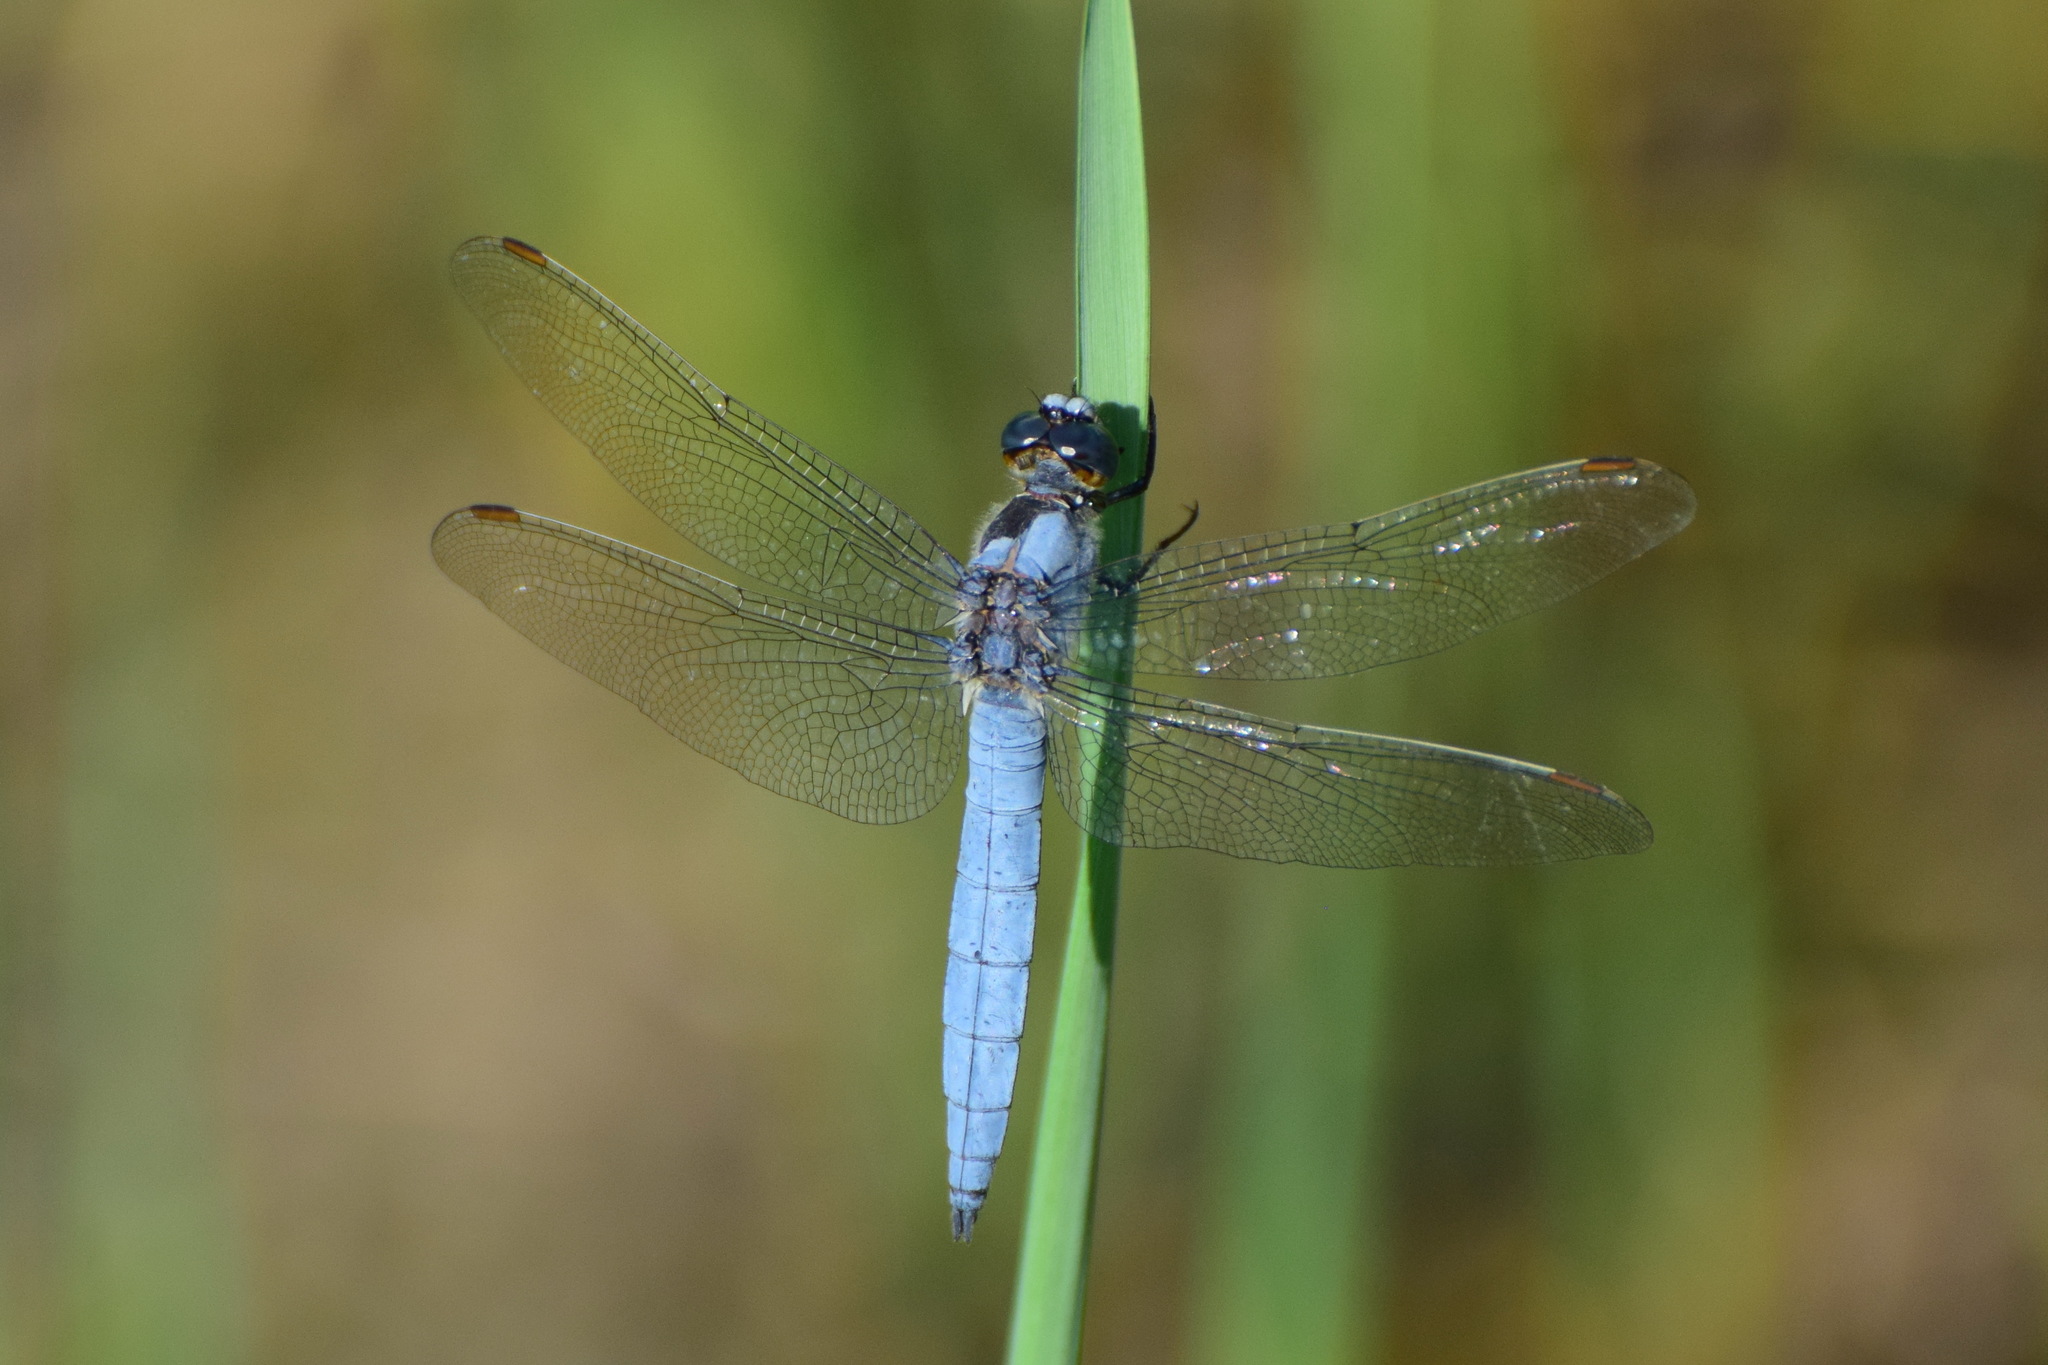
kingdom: Animalia
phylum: Arthropoda
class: Insecta
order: Odonata
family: Libellulidae
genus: Orthetrum
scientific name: Orthetrum brunneum
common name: Southern skimmer
